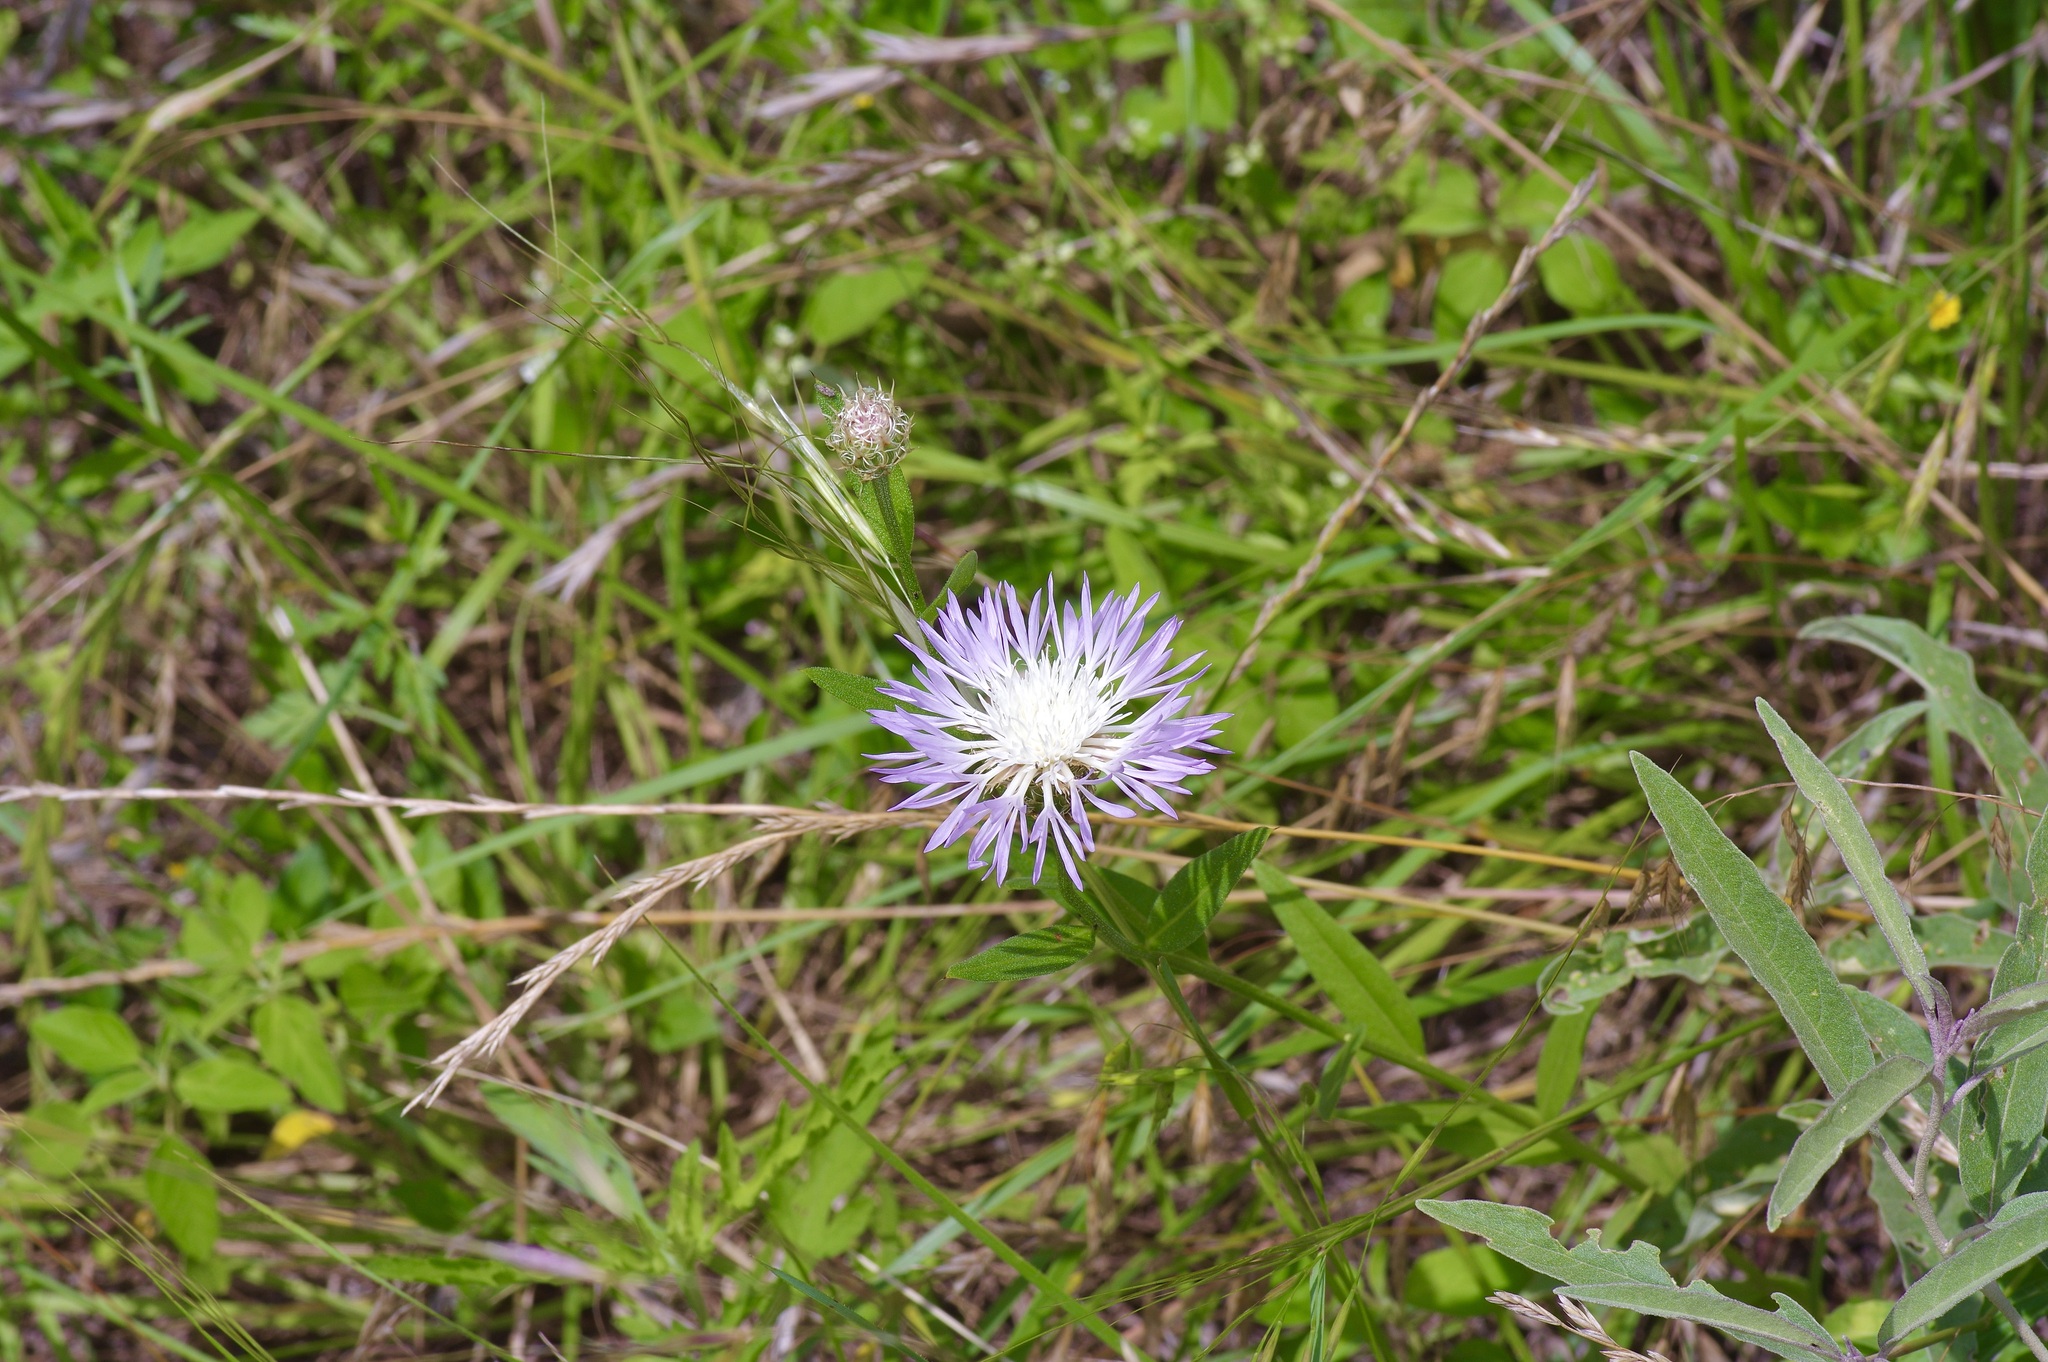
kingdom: Plantae
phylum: Tracheophyta
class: Magnoliopsida
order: Asterales
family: Asteraceae
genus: Plectocephalus
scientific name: Plectocephalus americanus
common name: American basket-flower
